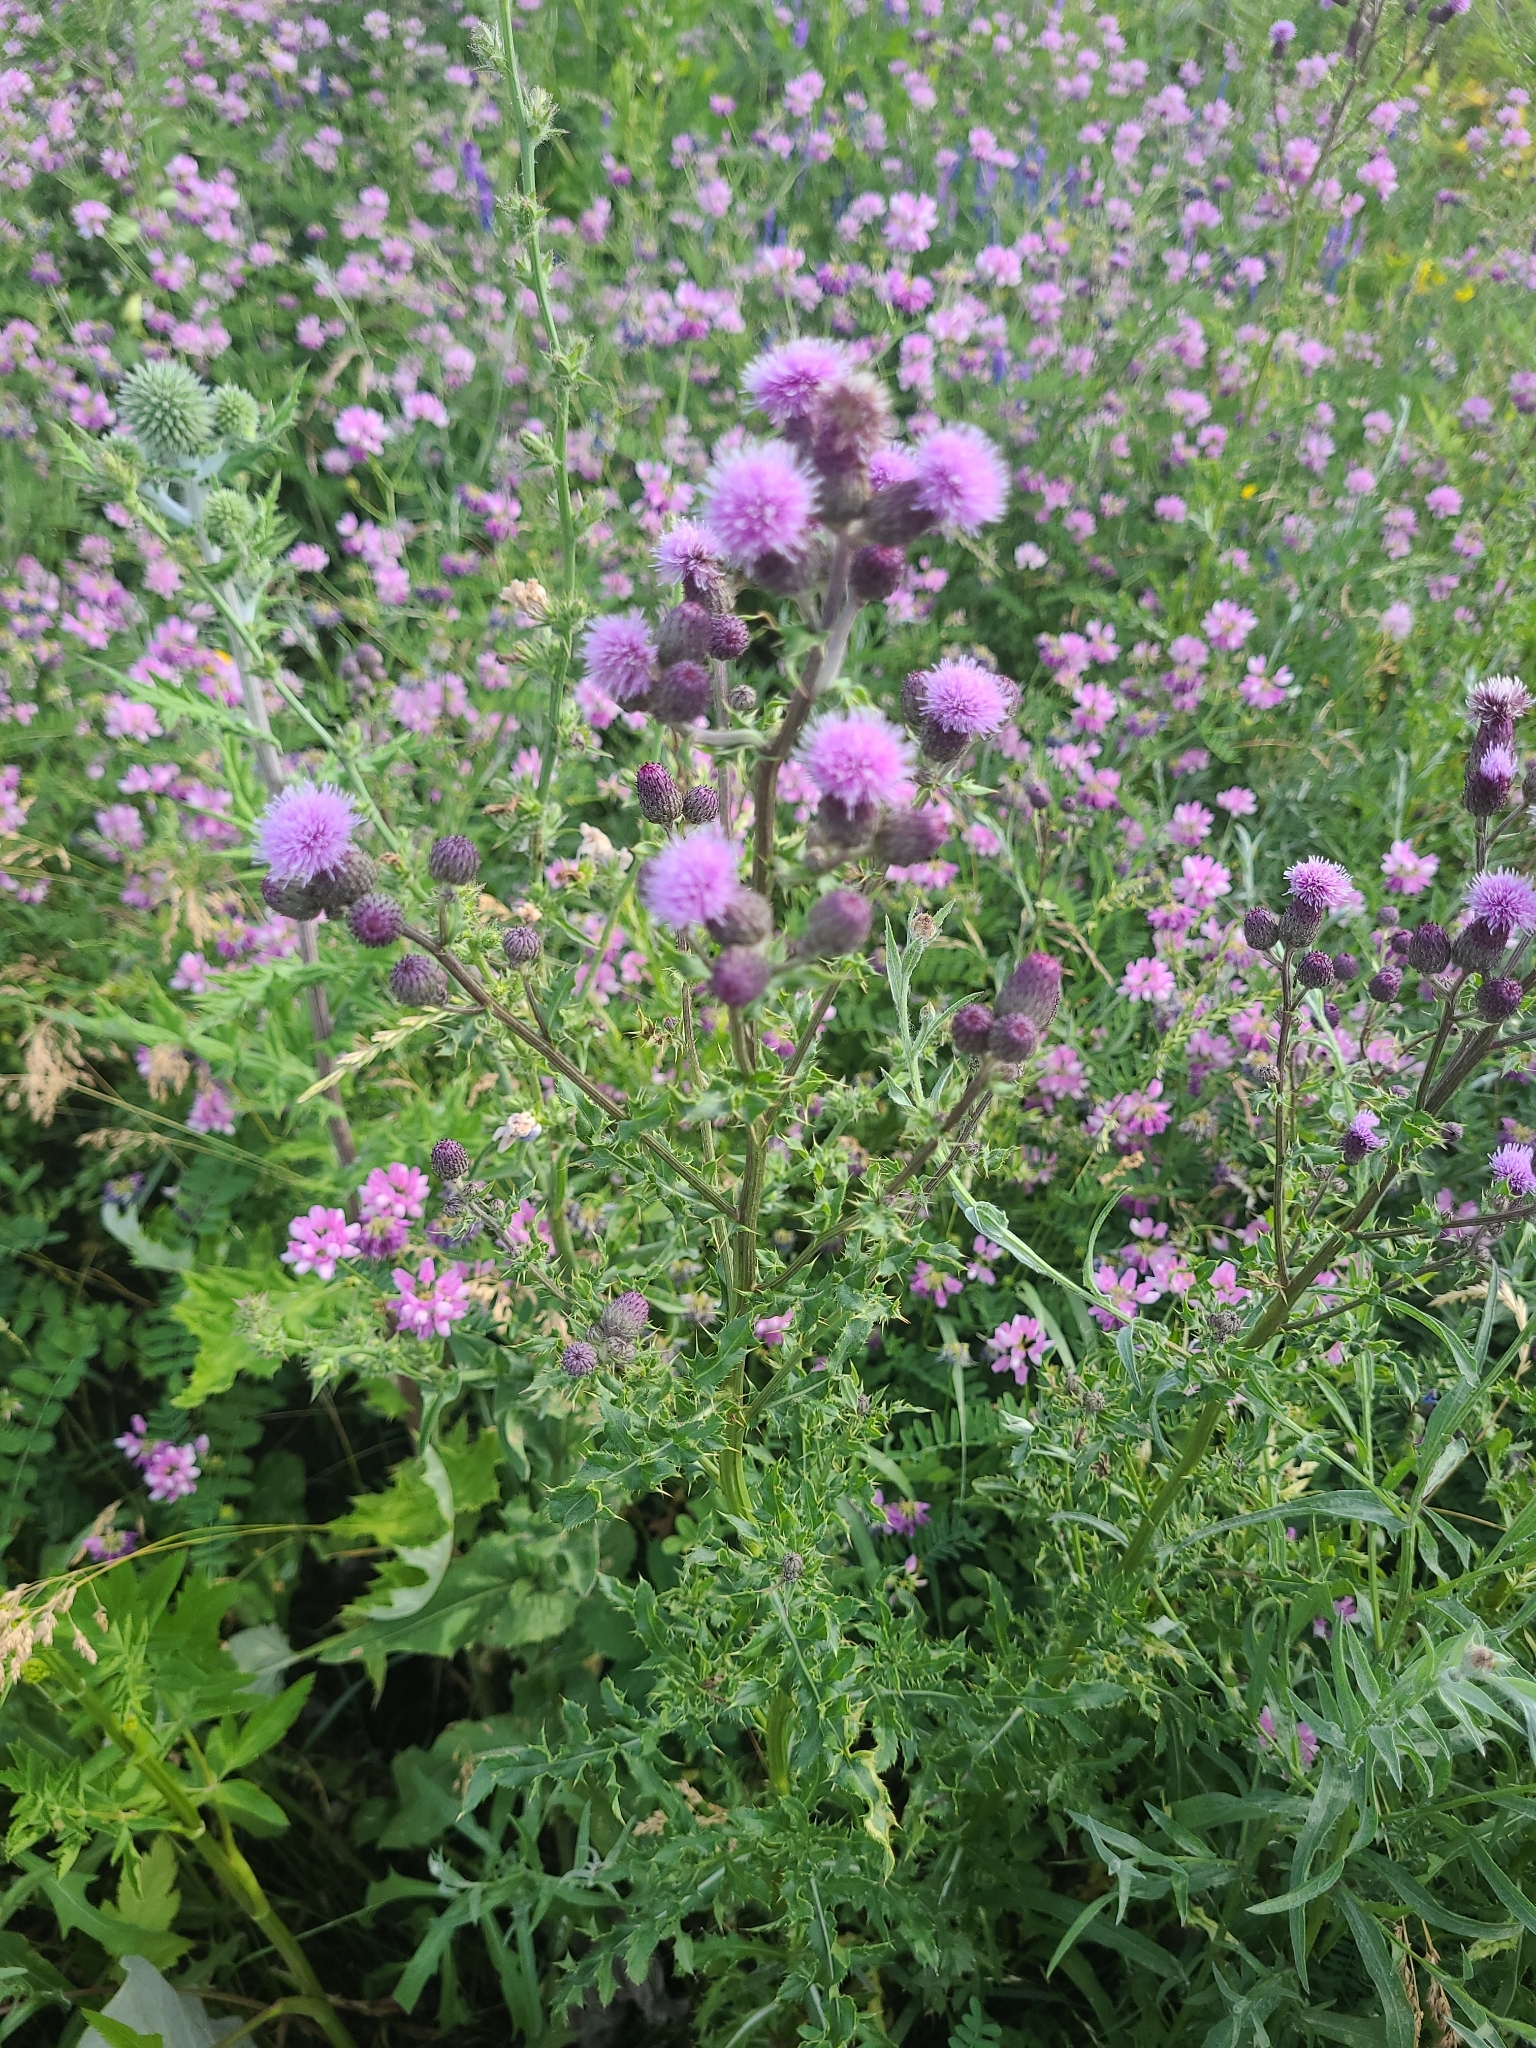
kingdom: Plantae
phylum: Tracheophyta
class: Magnoliopsida
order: Asterales
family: Asteraceae
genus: Cirsium
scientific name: Cirsium arvense
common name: Creeping thistle
